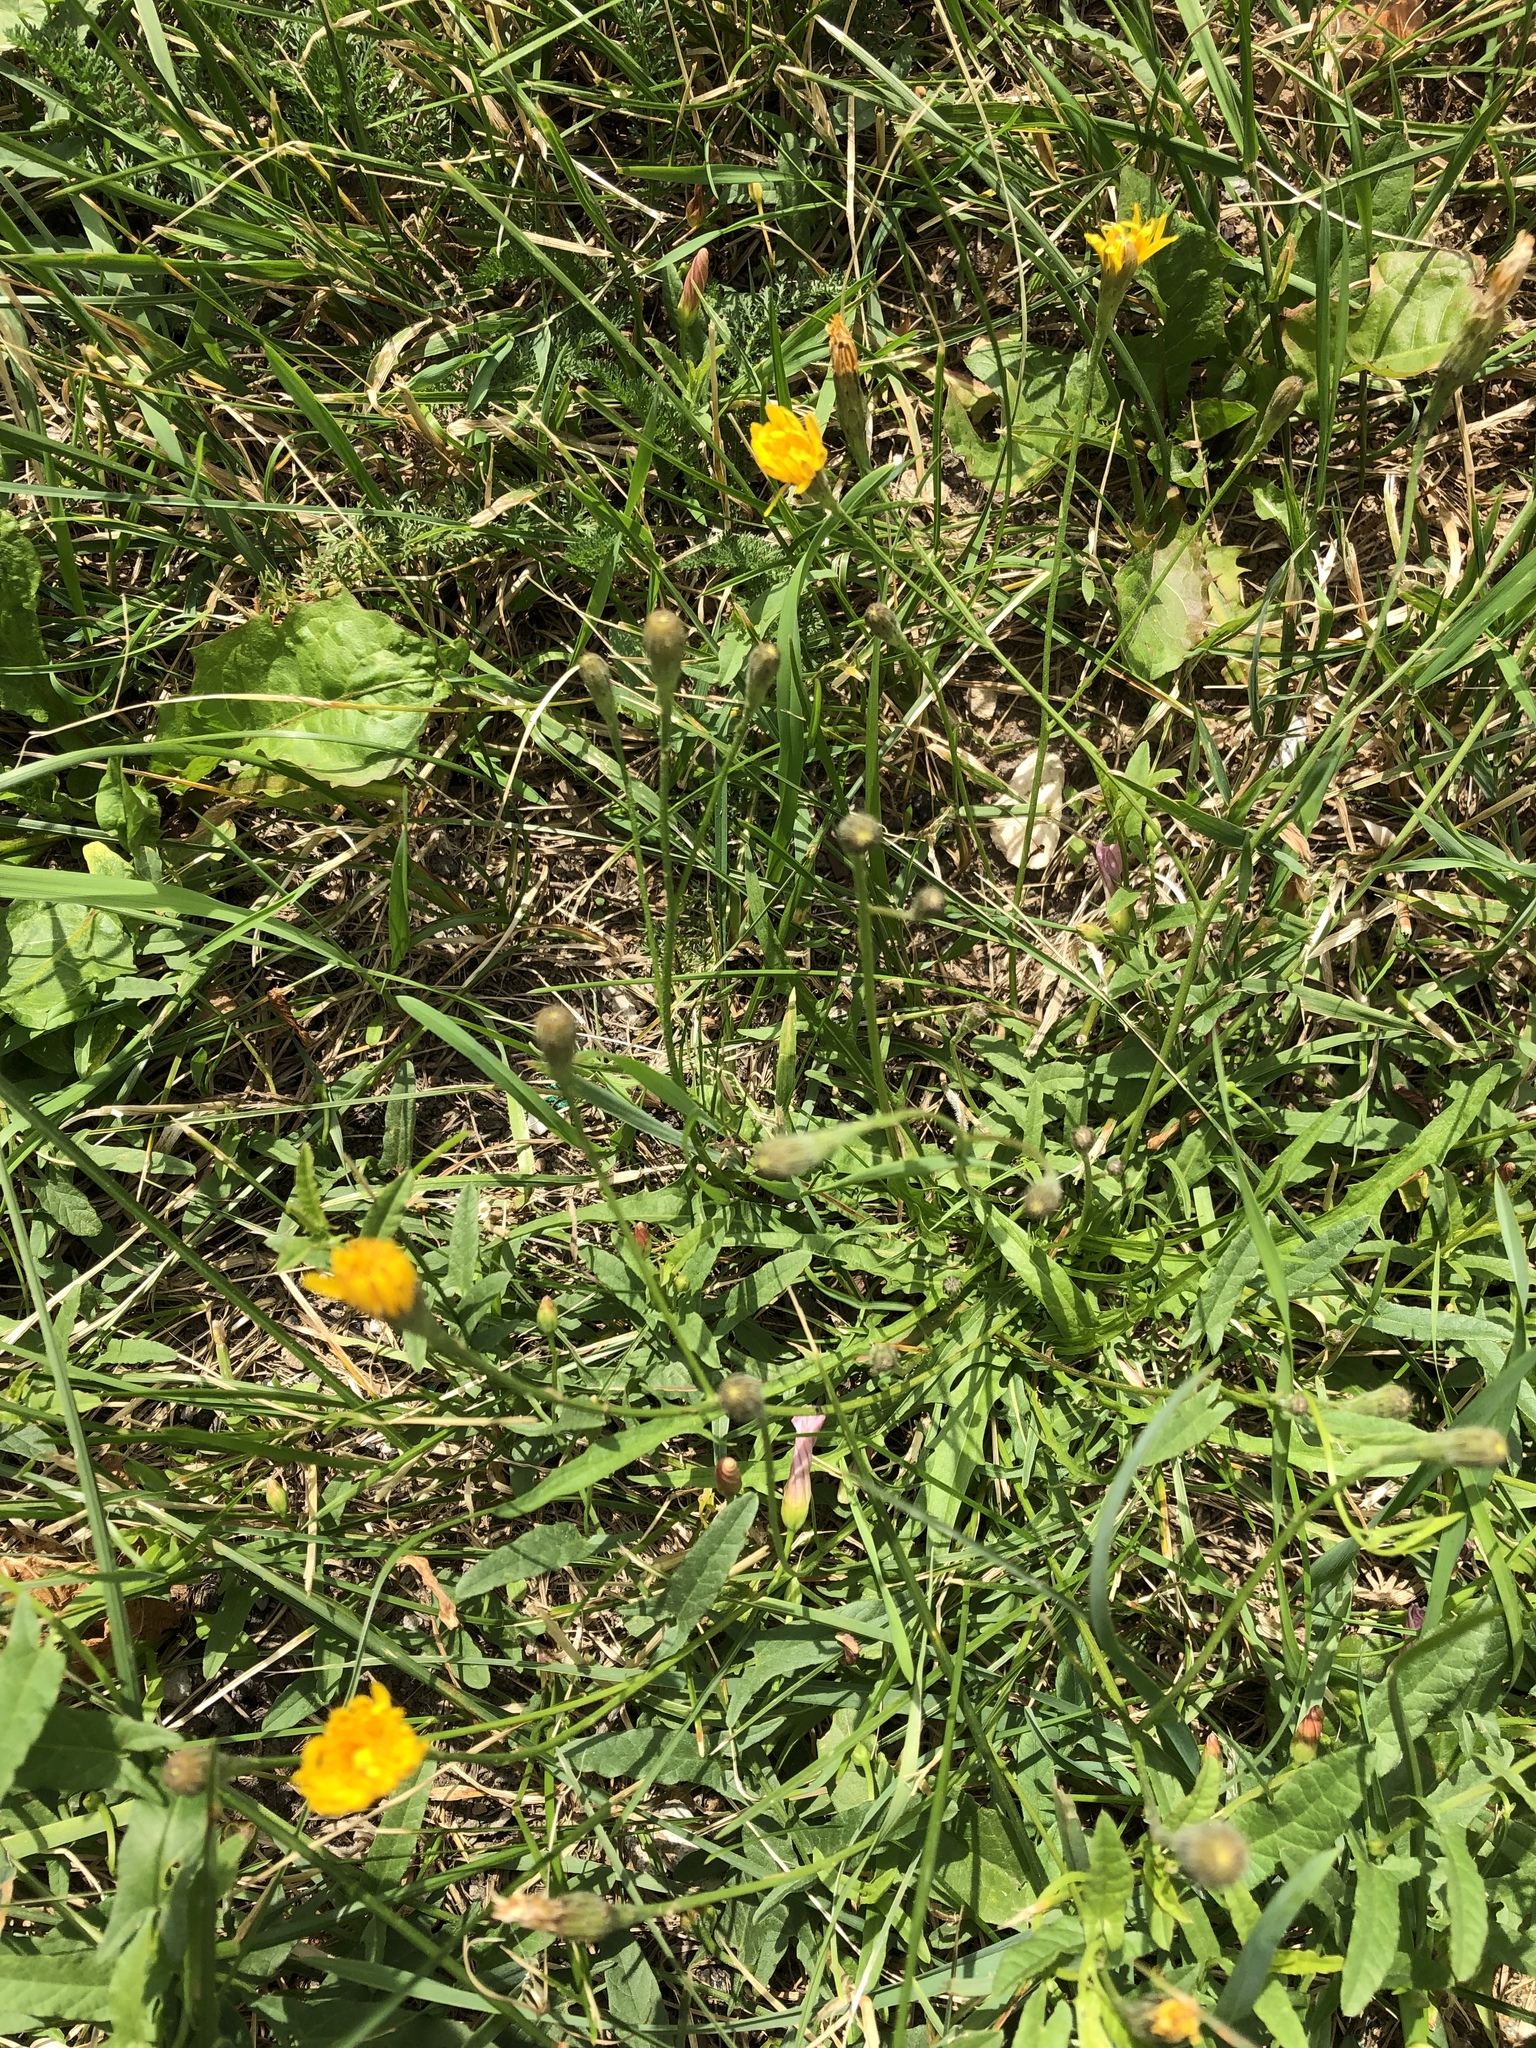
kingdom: Plantae
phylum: Tracheophyta
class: Magnoliopsida
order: Asterales
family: Asteraceae
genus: Scorzoneroides
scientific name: Scorzoneroides autumnalis
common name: Autumn hawkbit
